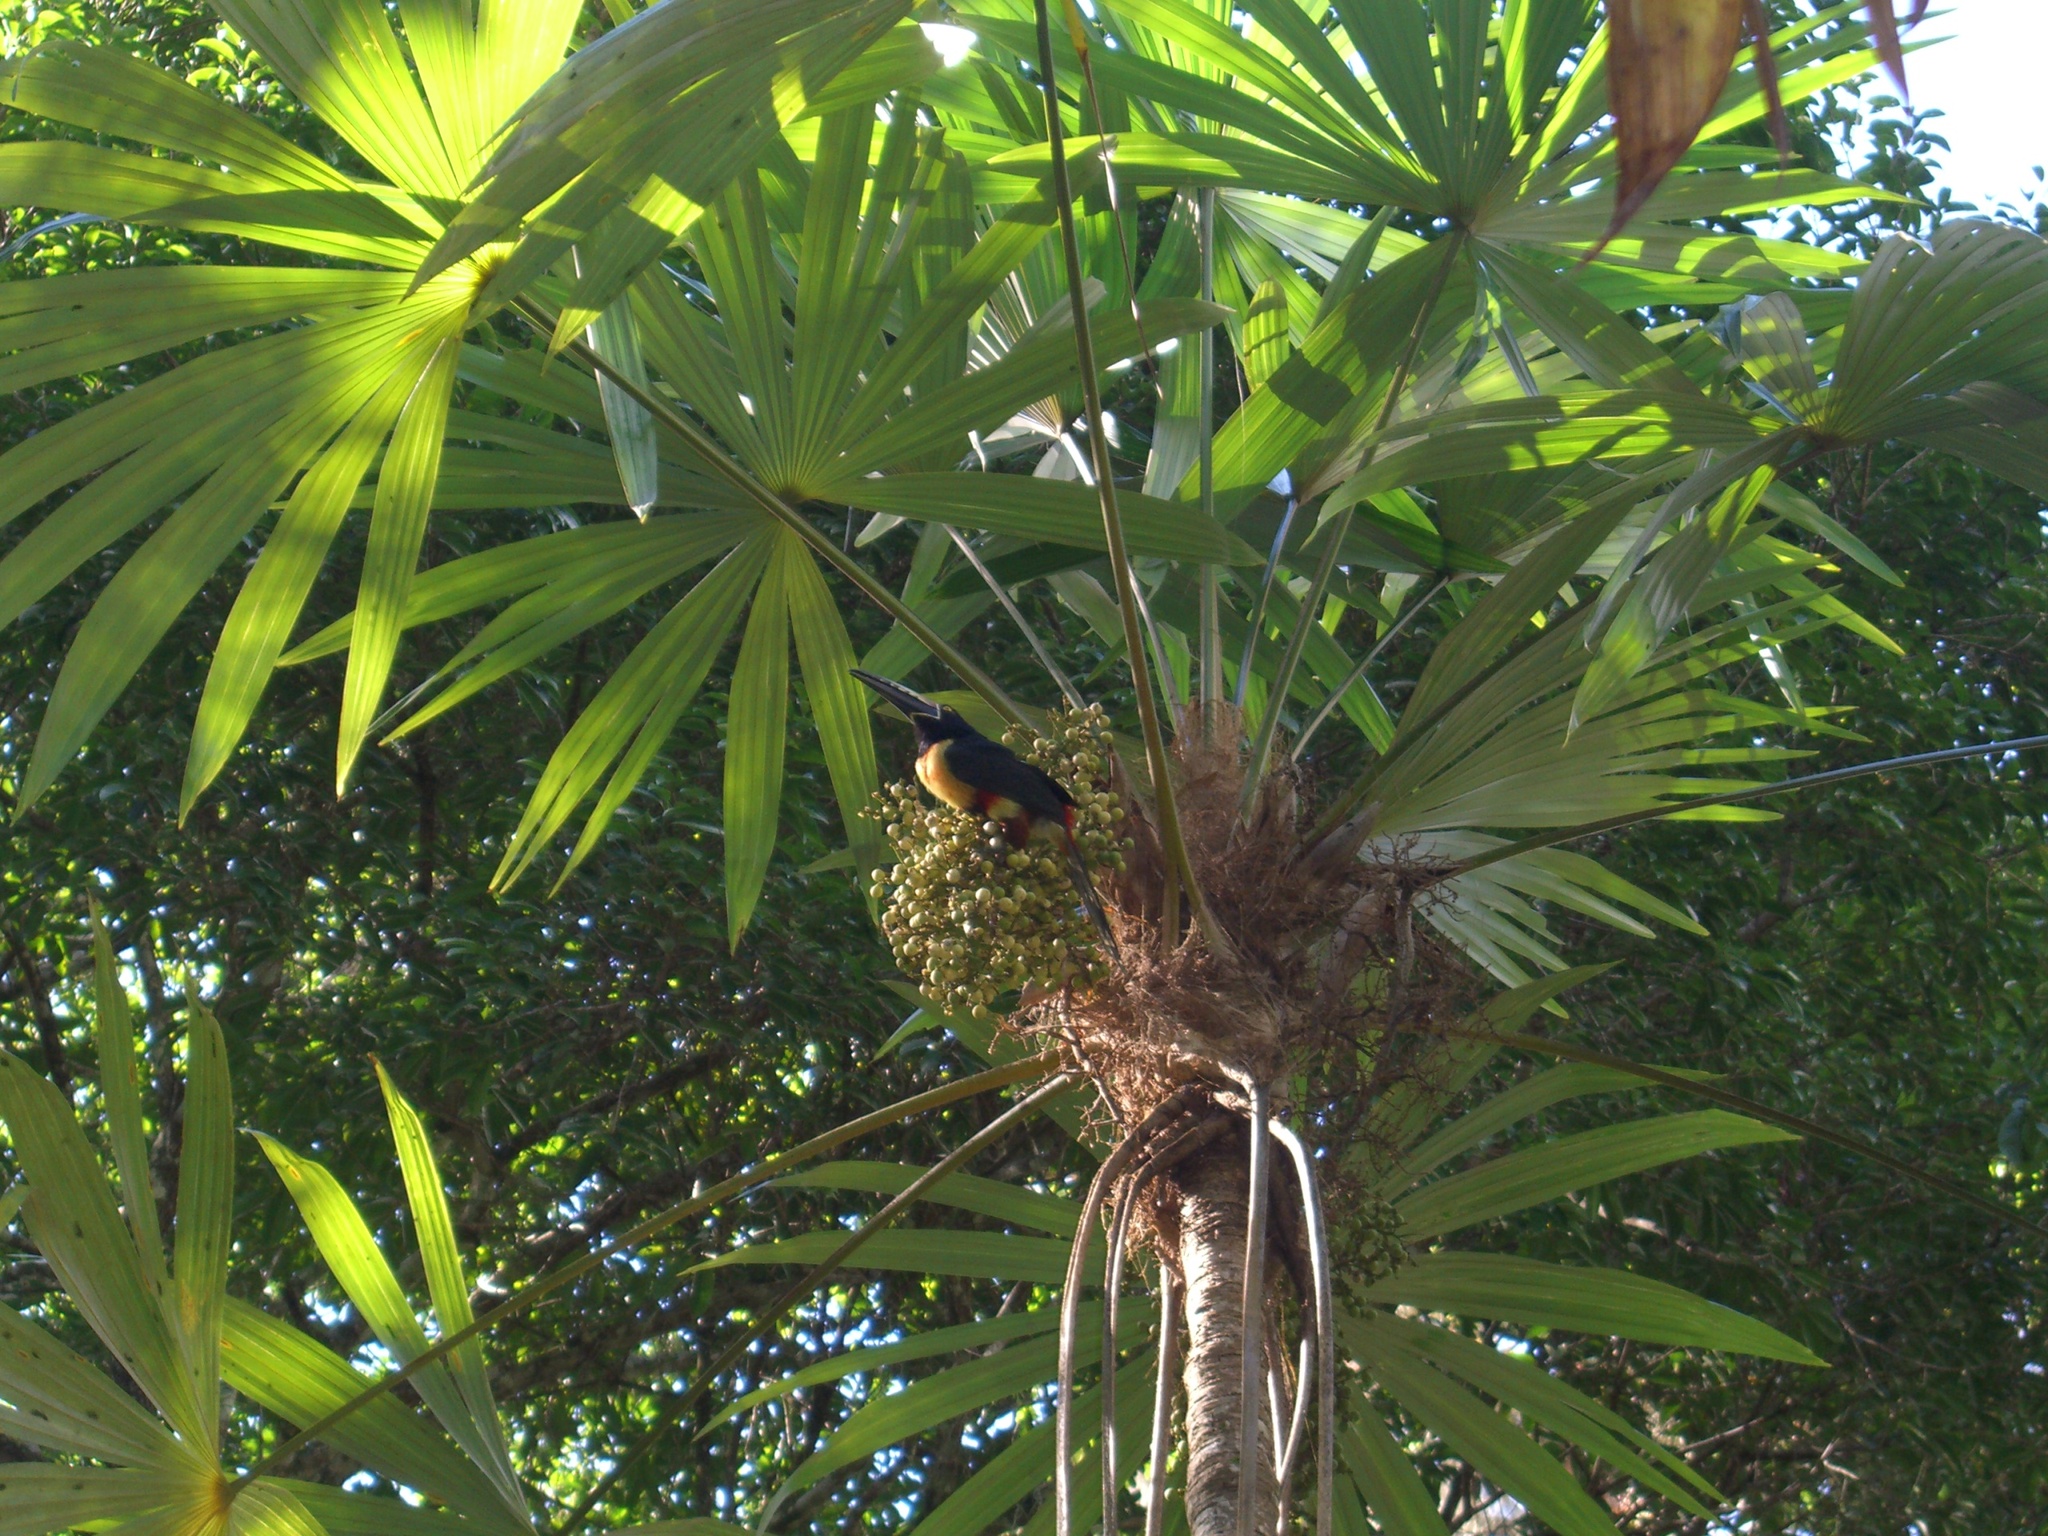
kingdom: Animalia
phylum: Chordata
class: Aves
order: Piciformes
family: Ramphastidae
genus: Pteroglossus
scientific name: Pteroglossus torquatus
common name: Collared aracari
